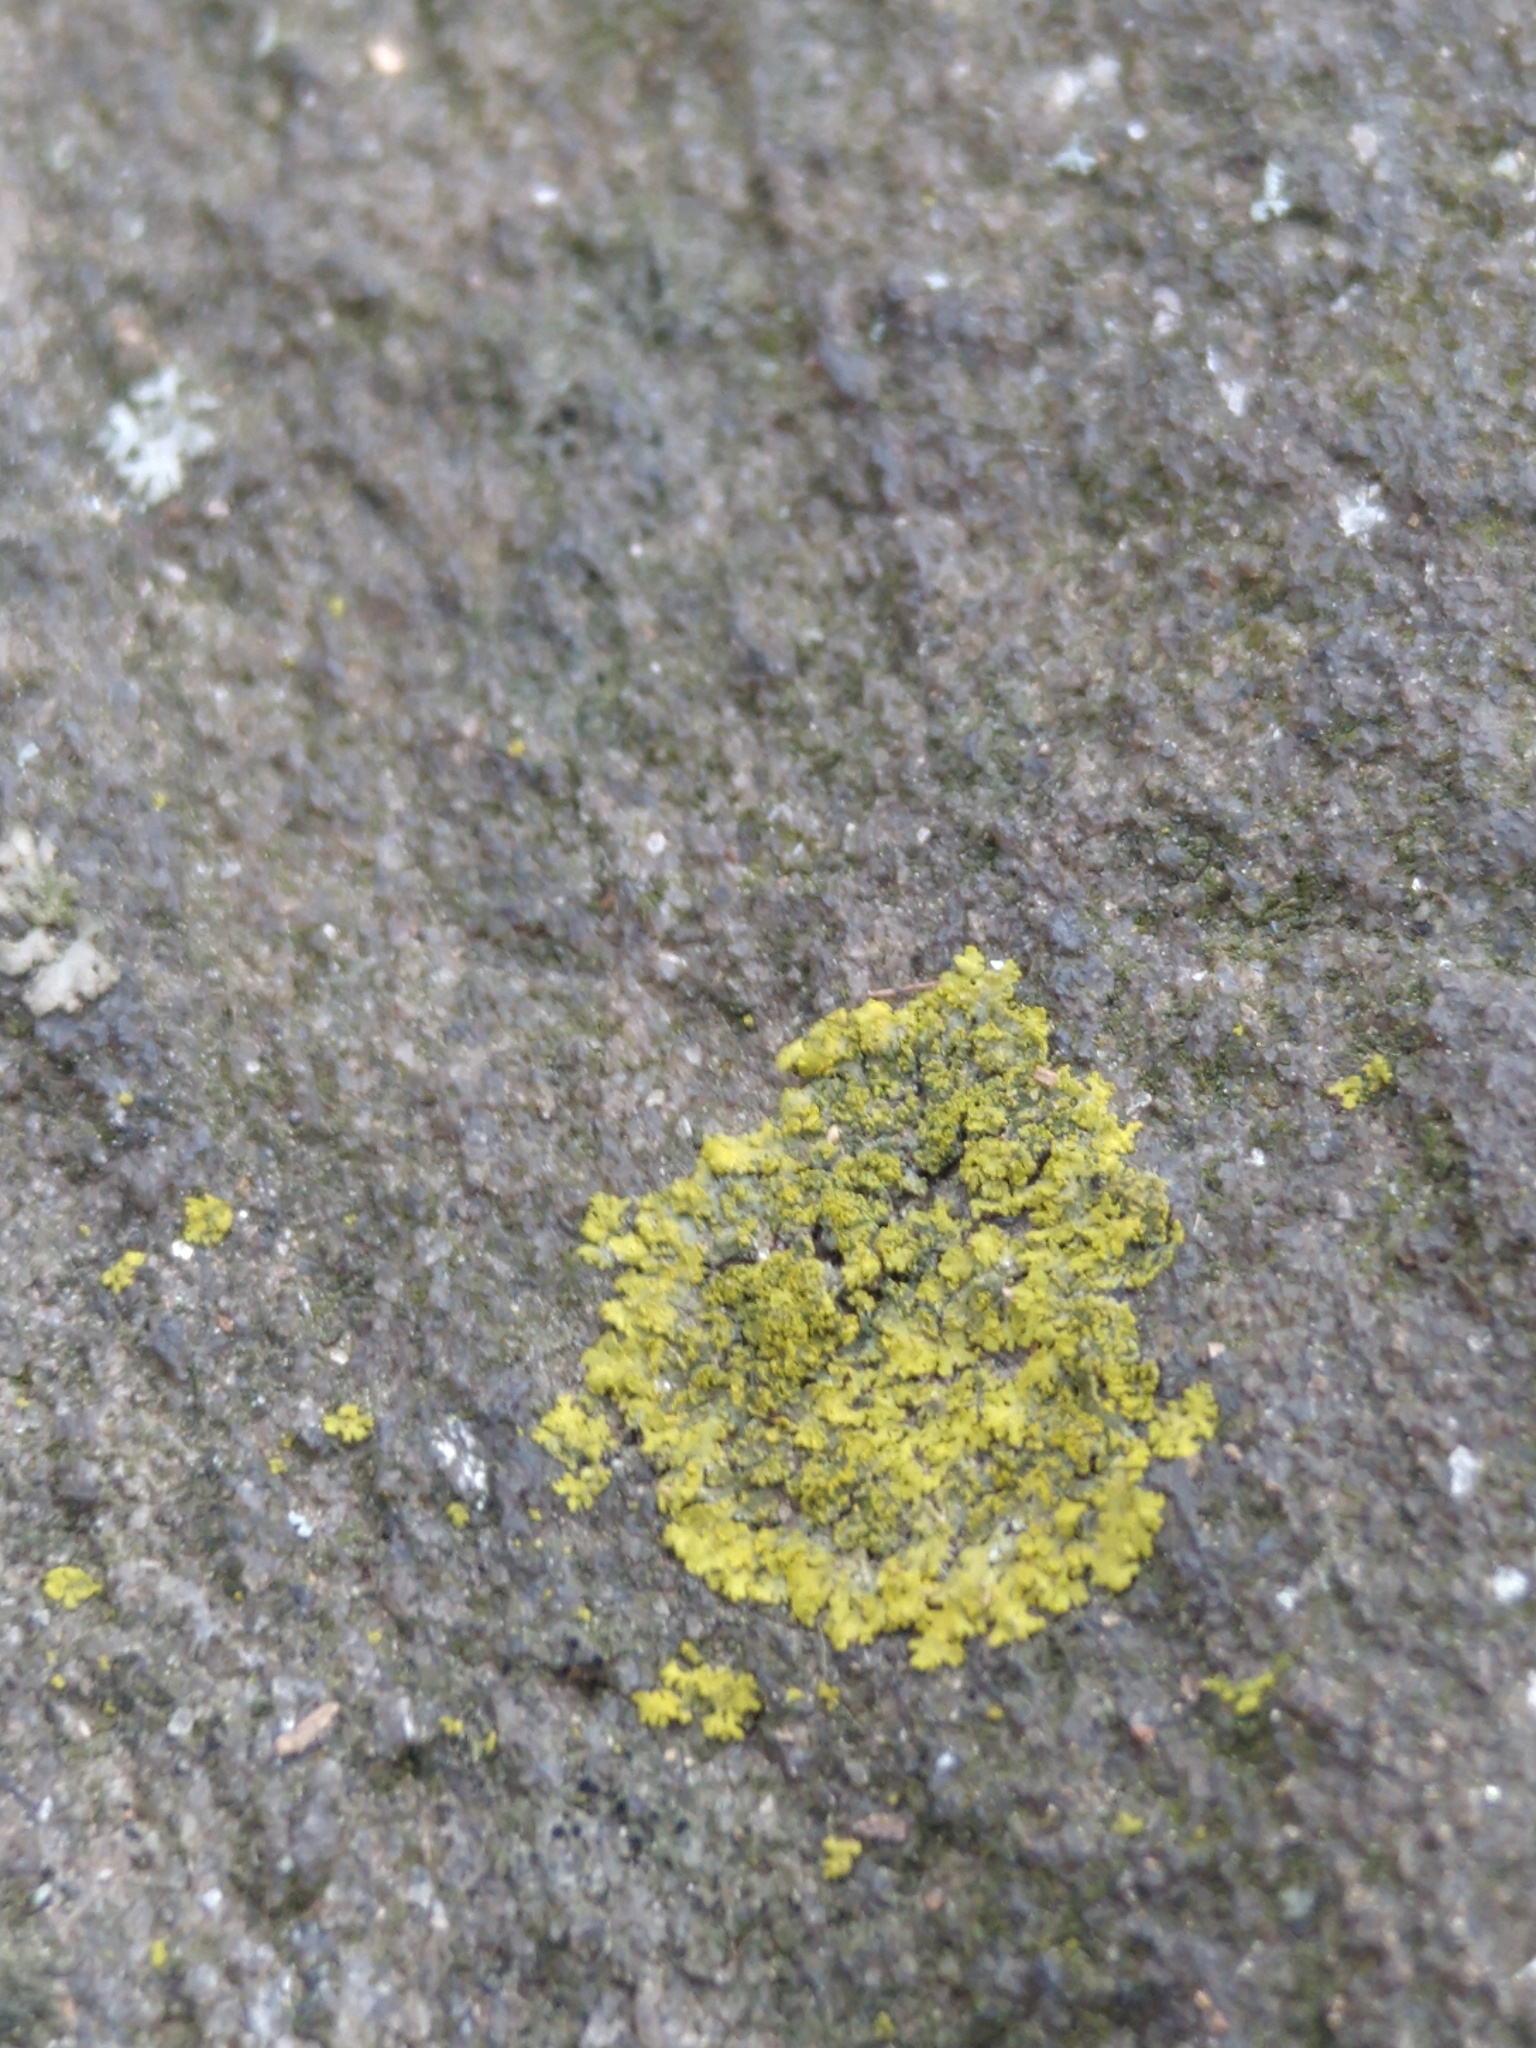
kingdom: Fungi
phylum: Ascomycota
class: Candelariomycetes
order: Candelariales
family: Candelariaceae
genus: Candelaria
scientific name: Candelaria concolor
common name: Candleflame lichen
